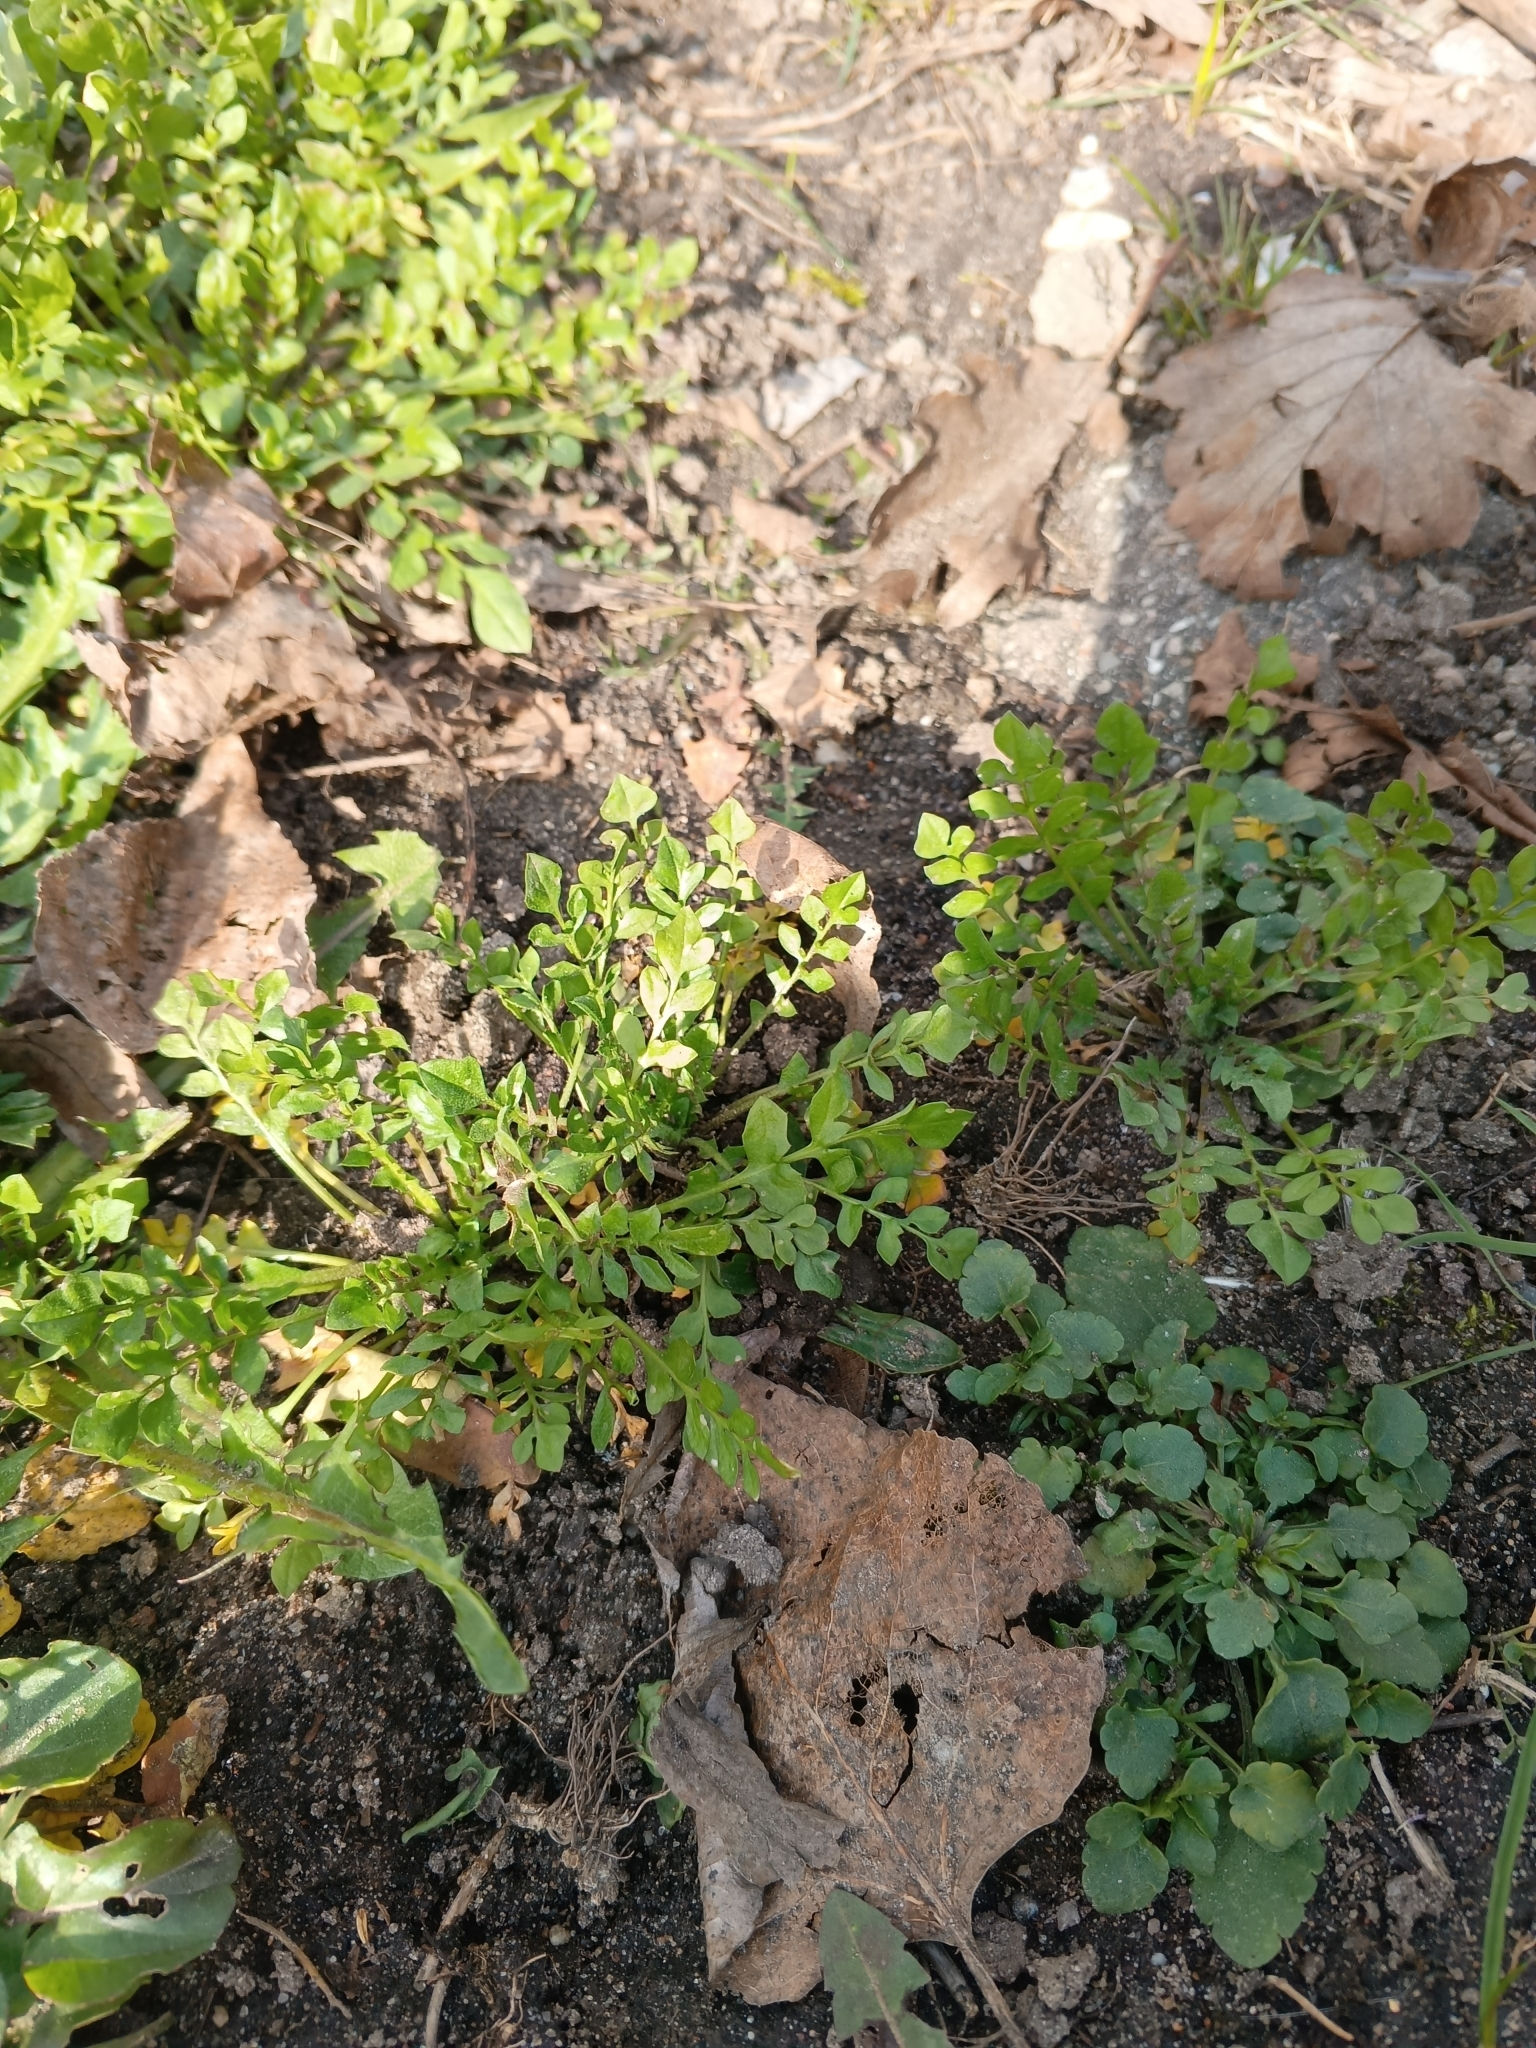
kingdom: Plantae
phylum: Tracheophyta
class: Magnoliopsida
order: Brassicales
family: Brassicaceae
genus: Capsella
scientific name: Capsella bursa-pastoris
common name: Shepherd's purse
